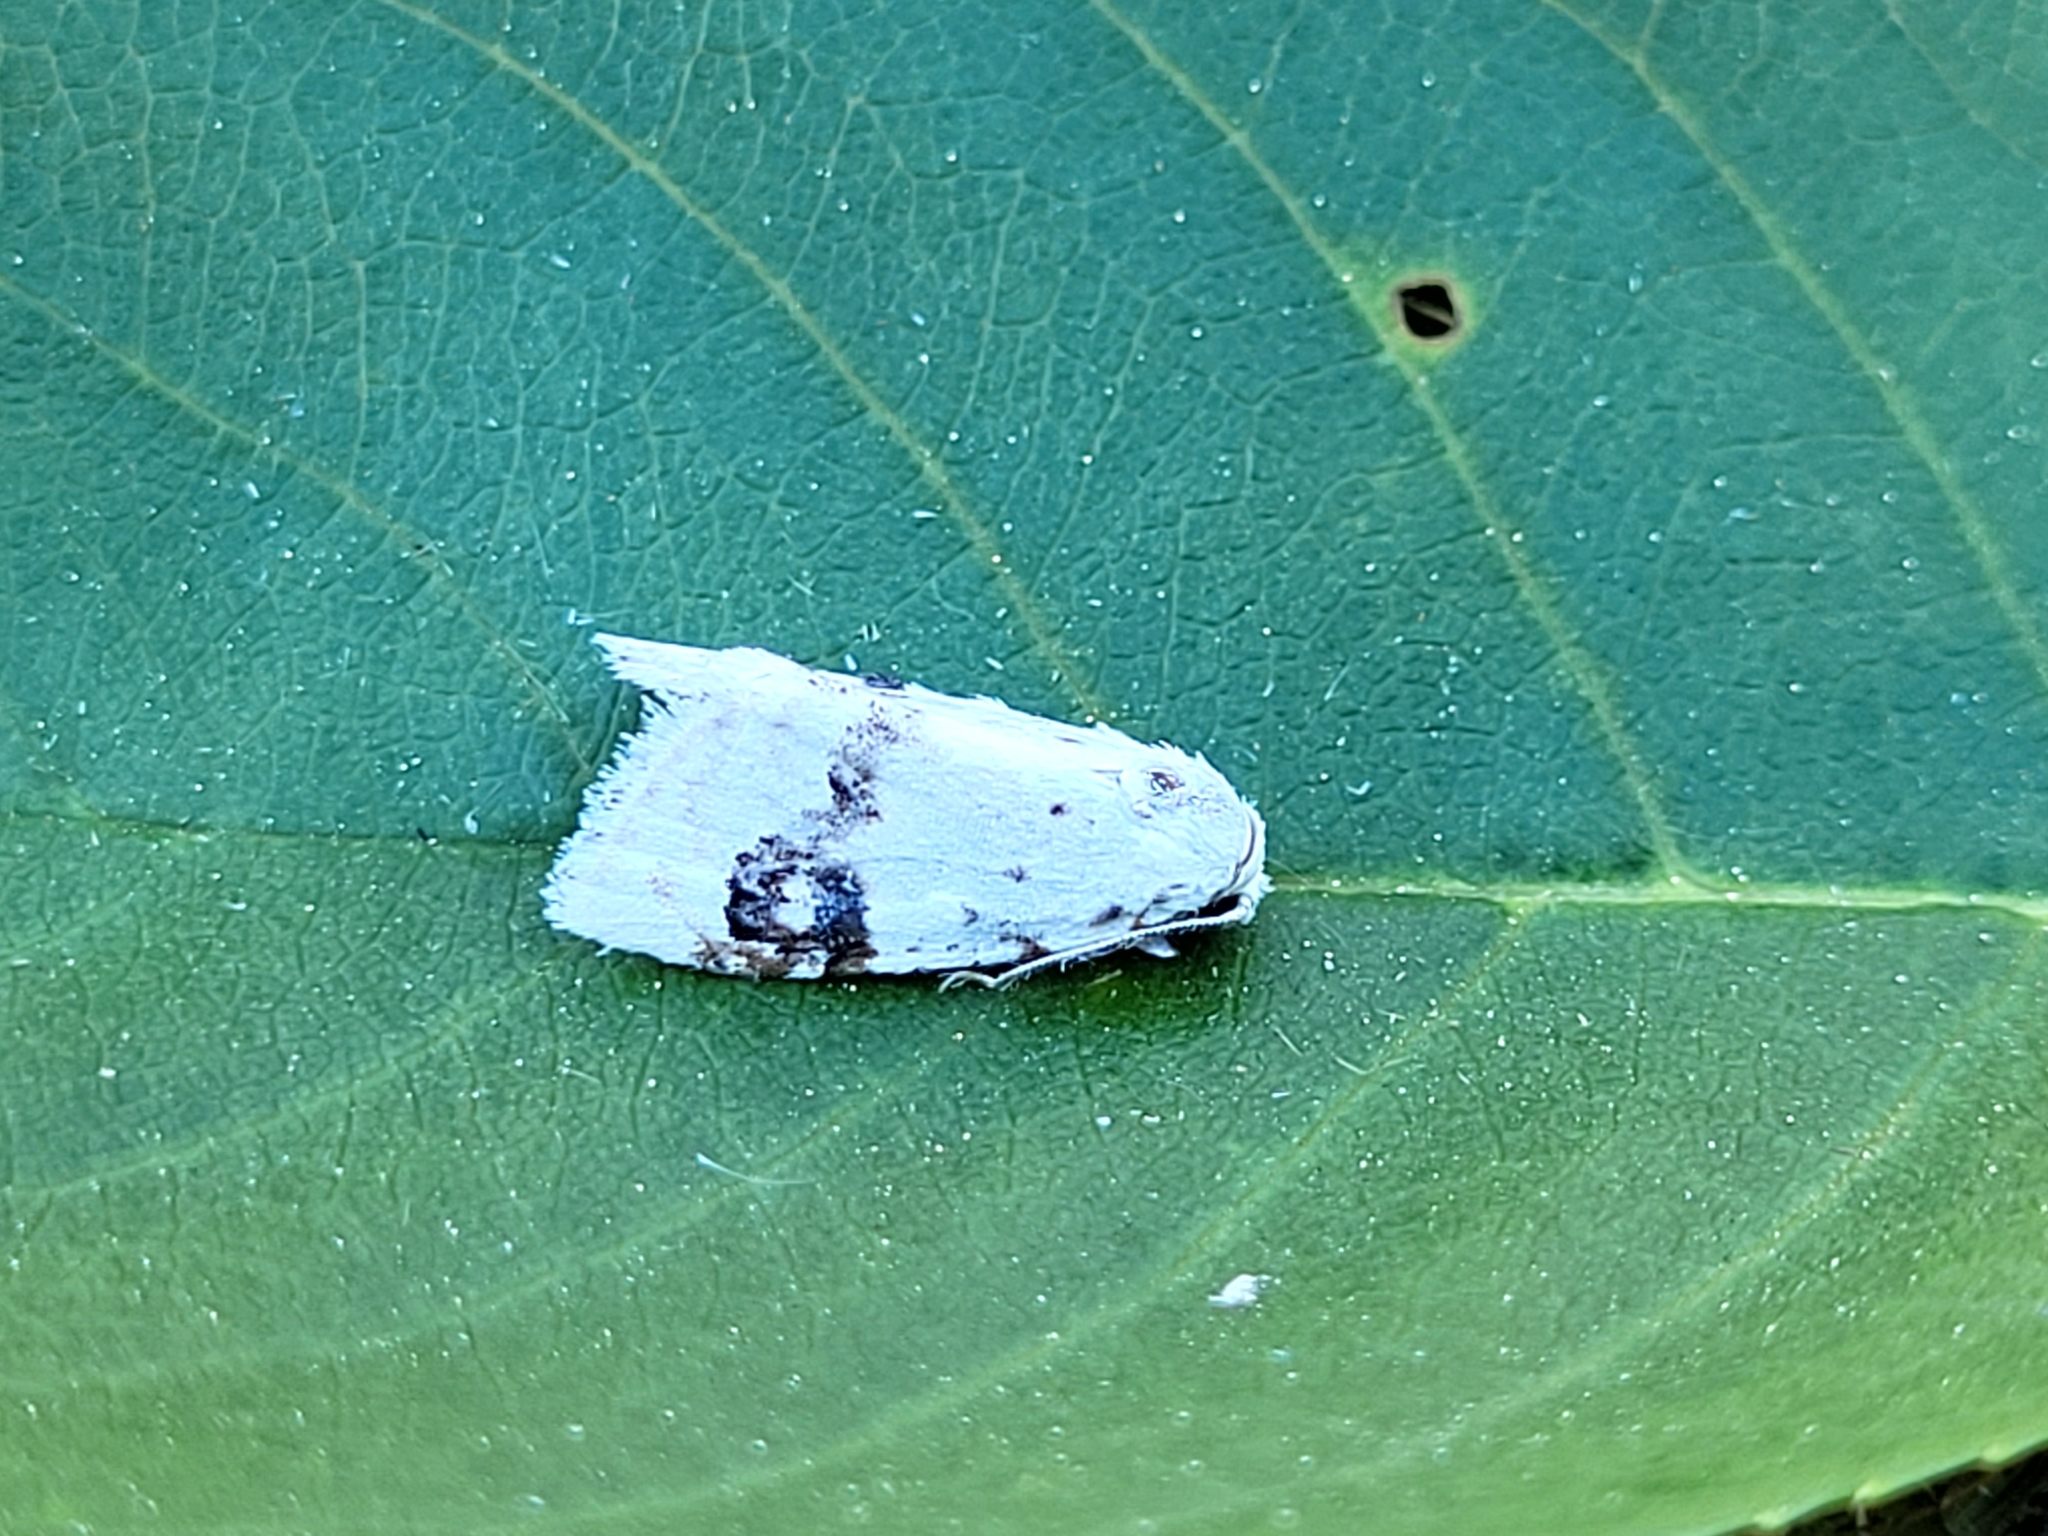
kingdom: Animalia
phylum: Arthropoda
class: Insecta
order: Lepidoptera
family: Nolidae
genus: Nola
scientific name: Nola cilicoides
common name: Blurry-patched nola moth
